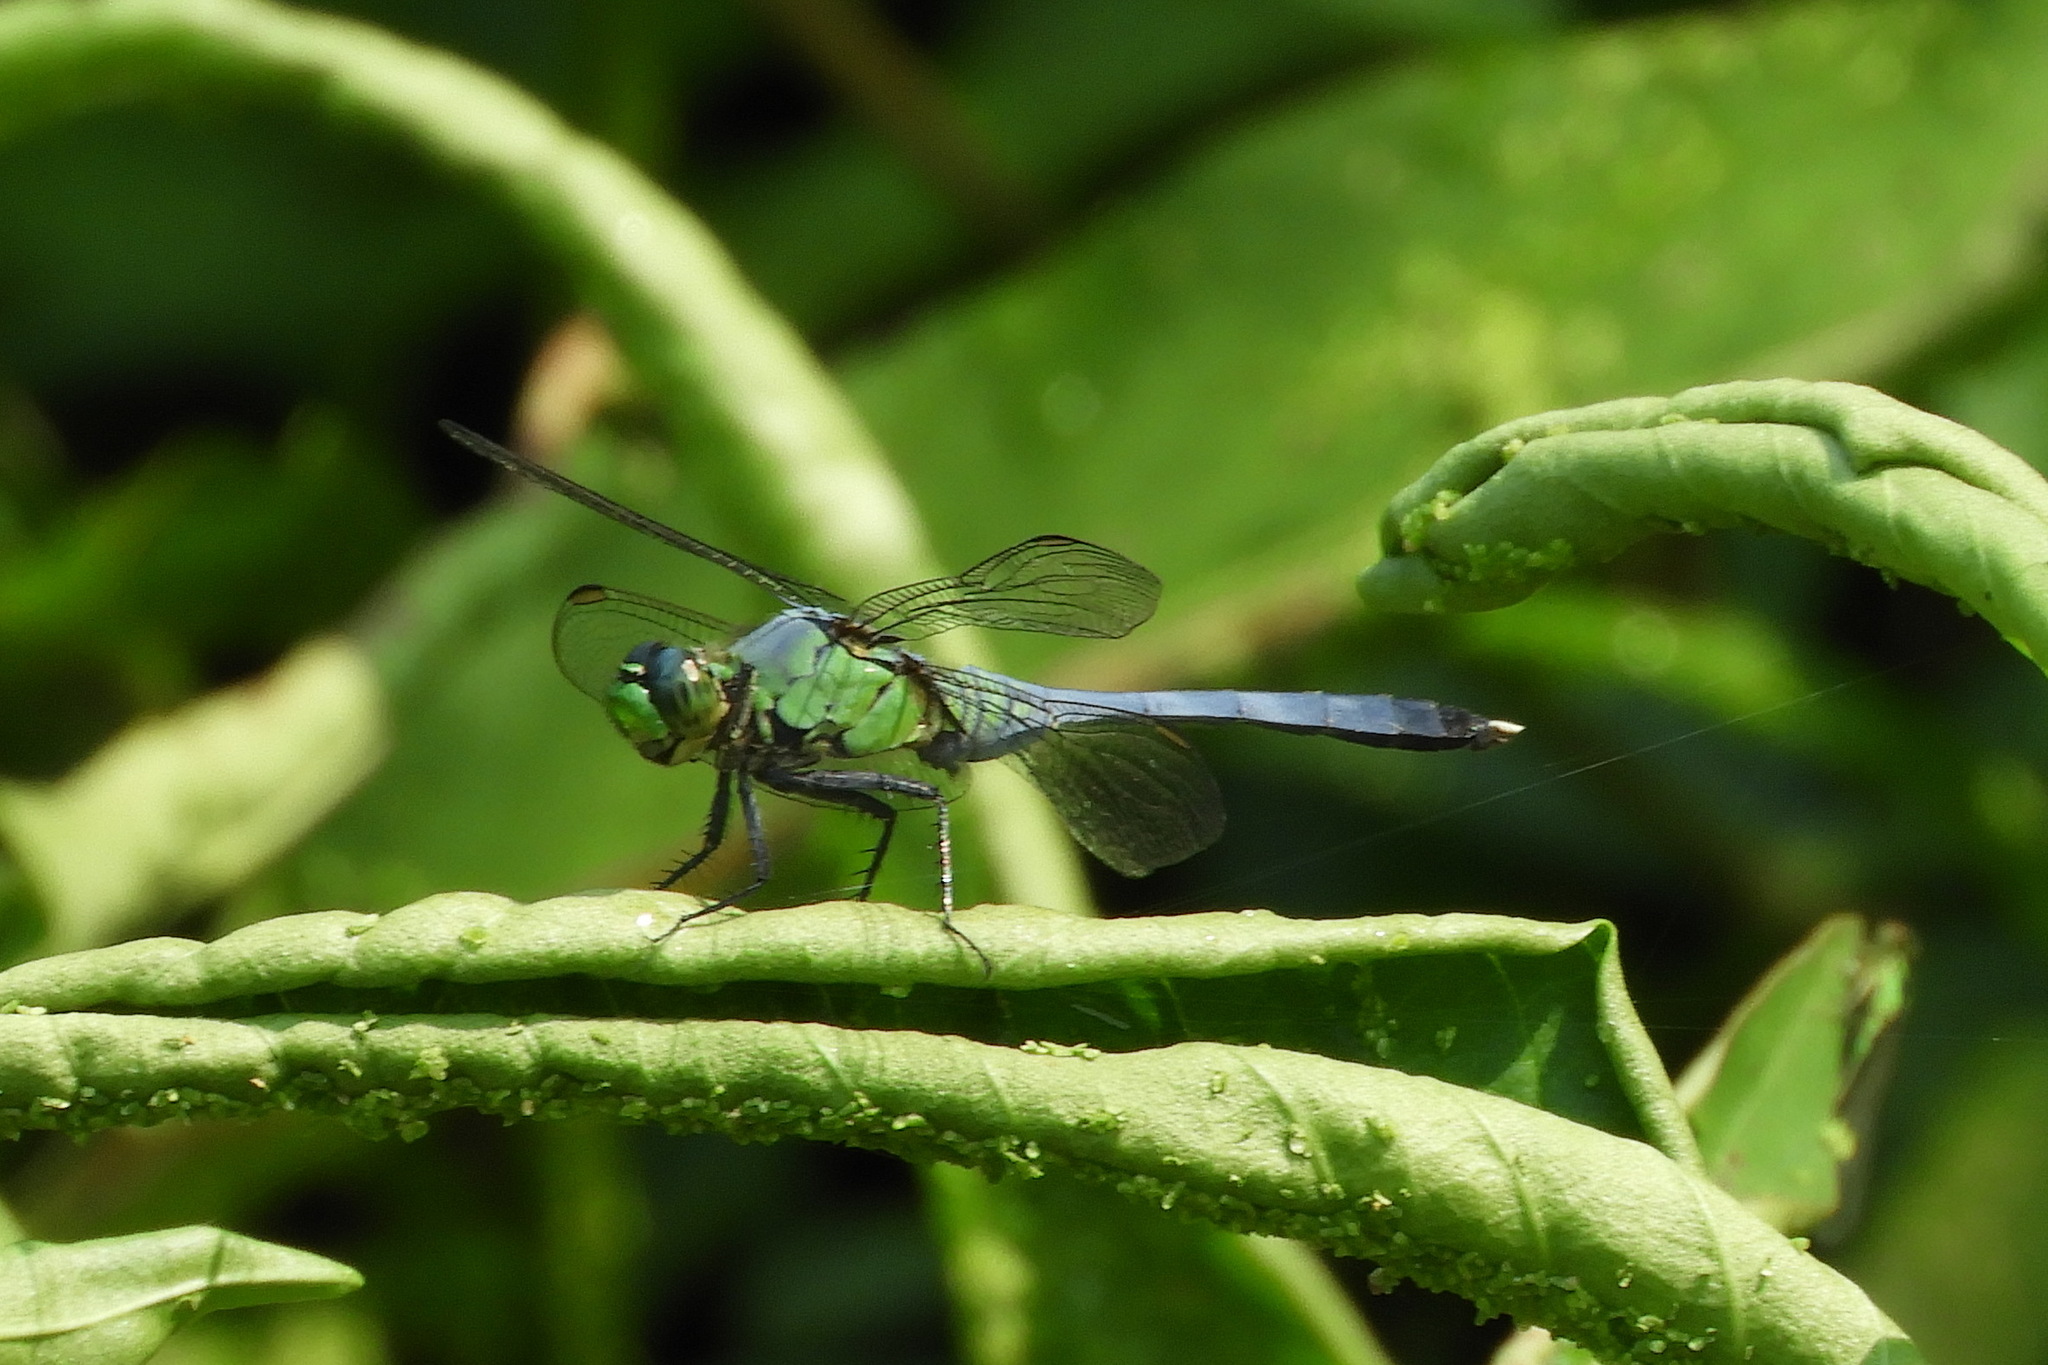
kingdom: Animalia
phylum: Arthropoda
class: Insecta
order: Odonata
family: Libellulidae
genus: Erythemis
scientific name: Erythemis simplicicollis
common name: Eastern pondhawk
